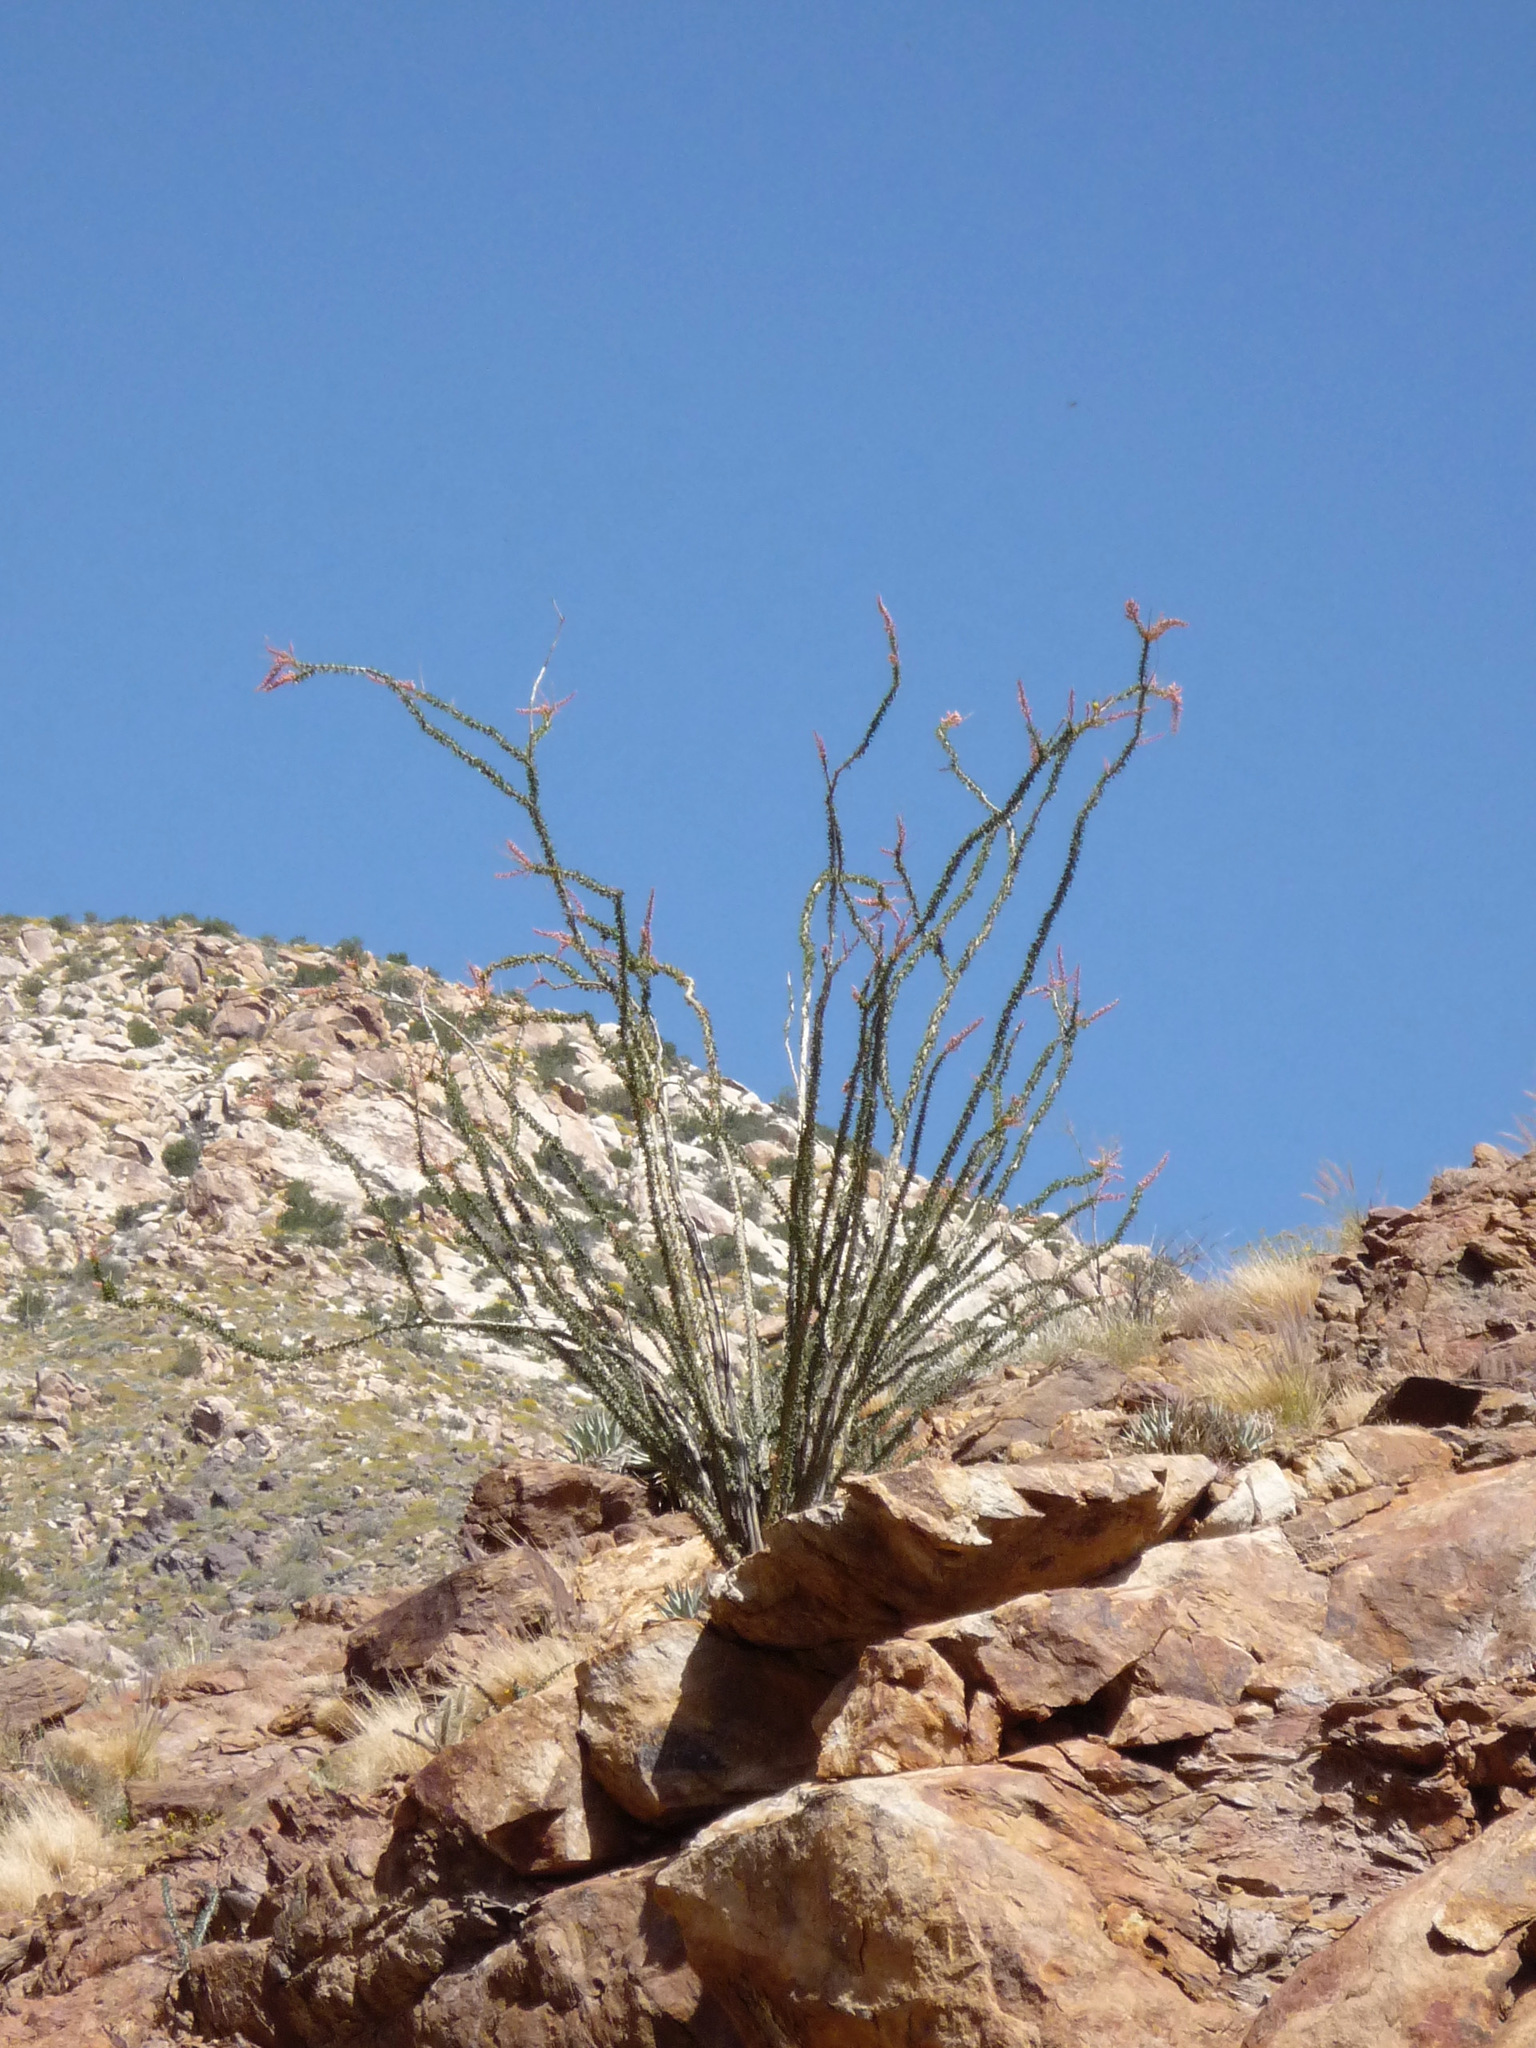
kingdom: Plantae
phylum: Tracheophyta
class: Magnoliopsida
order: Ericales
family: Fouquieriaceae
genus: Fouquieria
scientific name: Fouquieria splendens
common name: Vine-cactus
